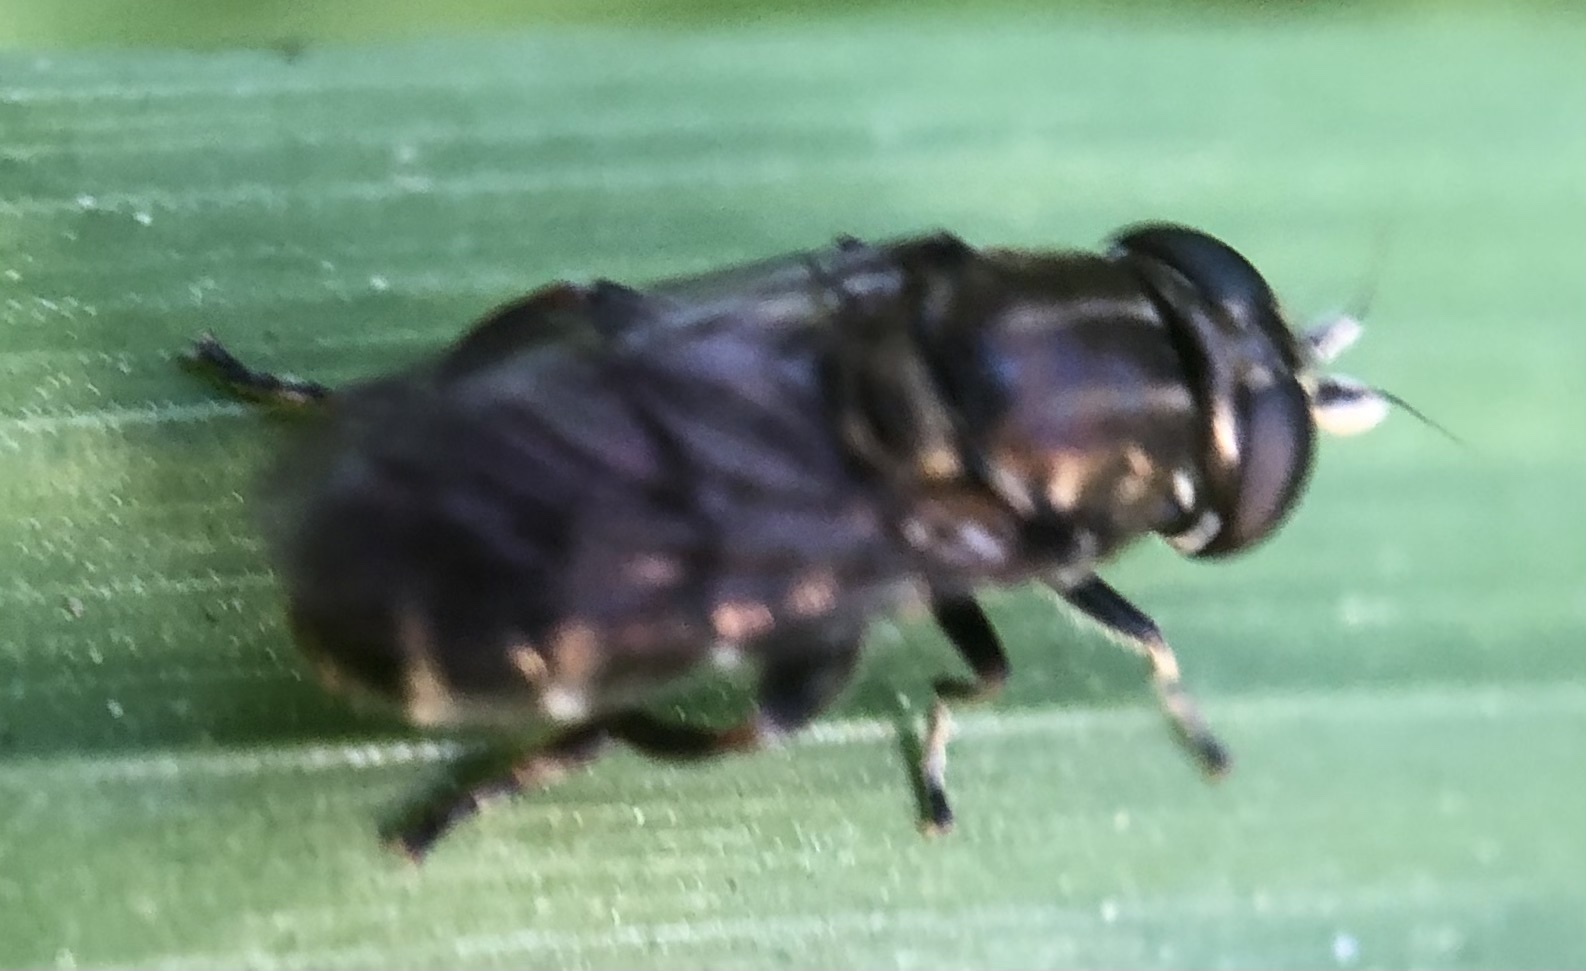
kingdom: Animalia
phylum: Arthropoda
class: Insecta
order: Diptera
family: Syrphidae
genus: Eumerus
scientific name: Eumerus
